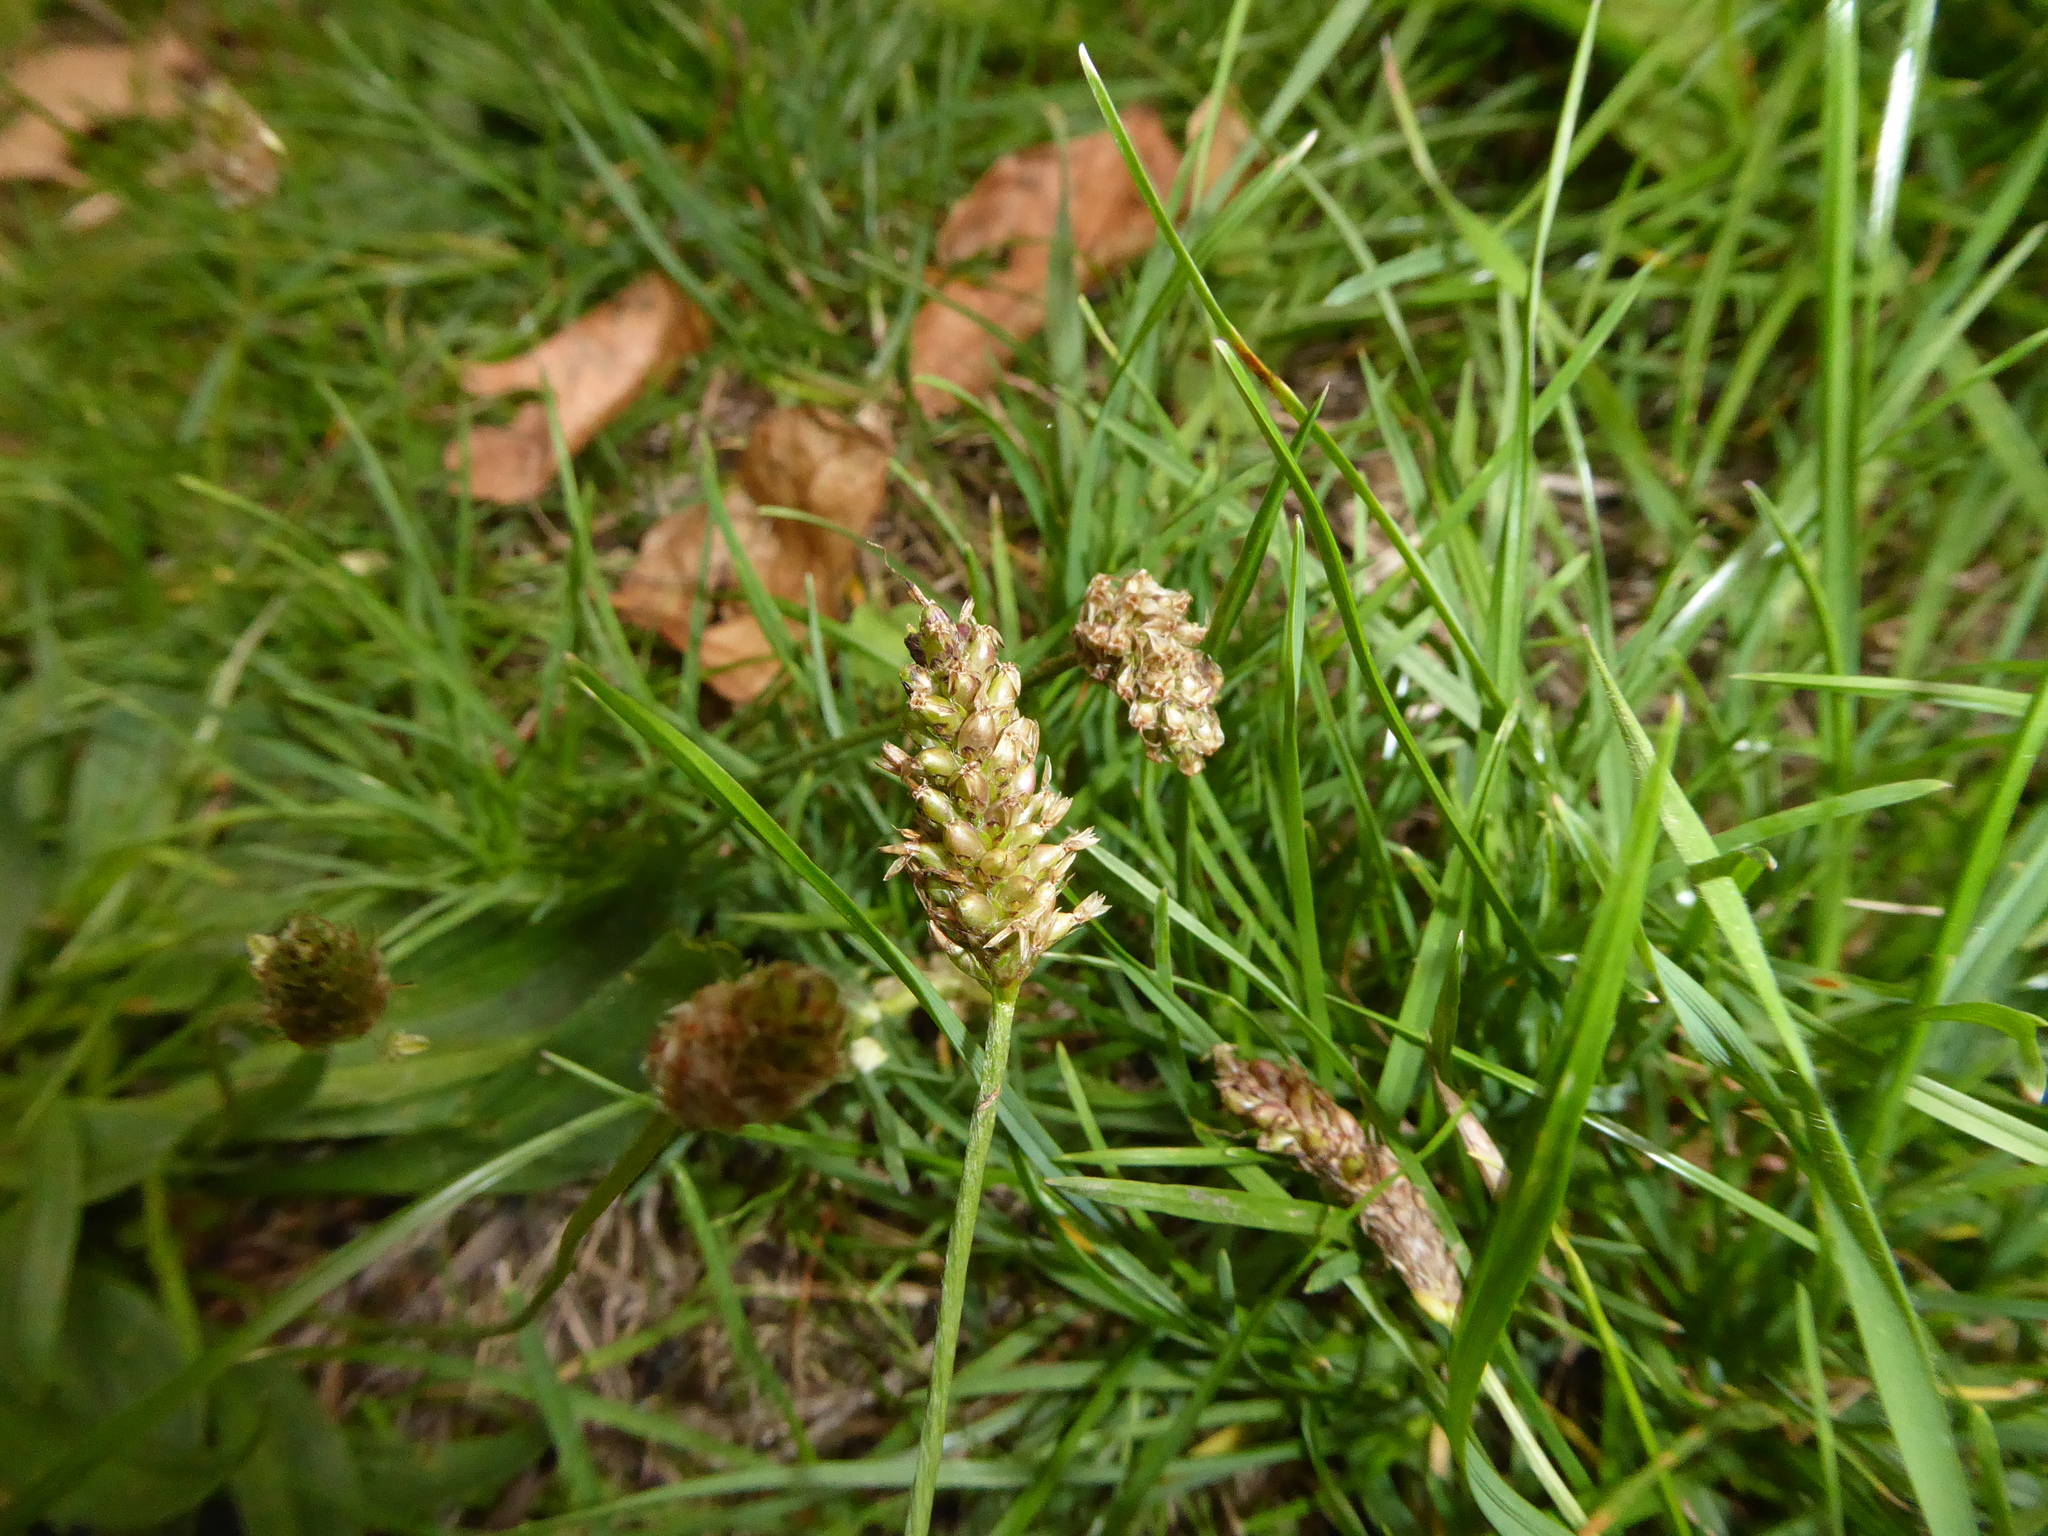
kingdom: Plantae
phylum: Tracheophyta
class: Magnoliopsida
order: Lamiales
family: Plantaginaceae
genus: Plantago
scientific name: Plantago lanceolata
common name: Ribwort plantain
